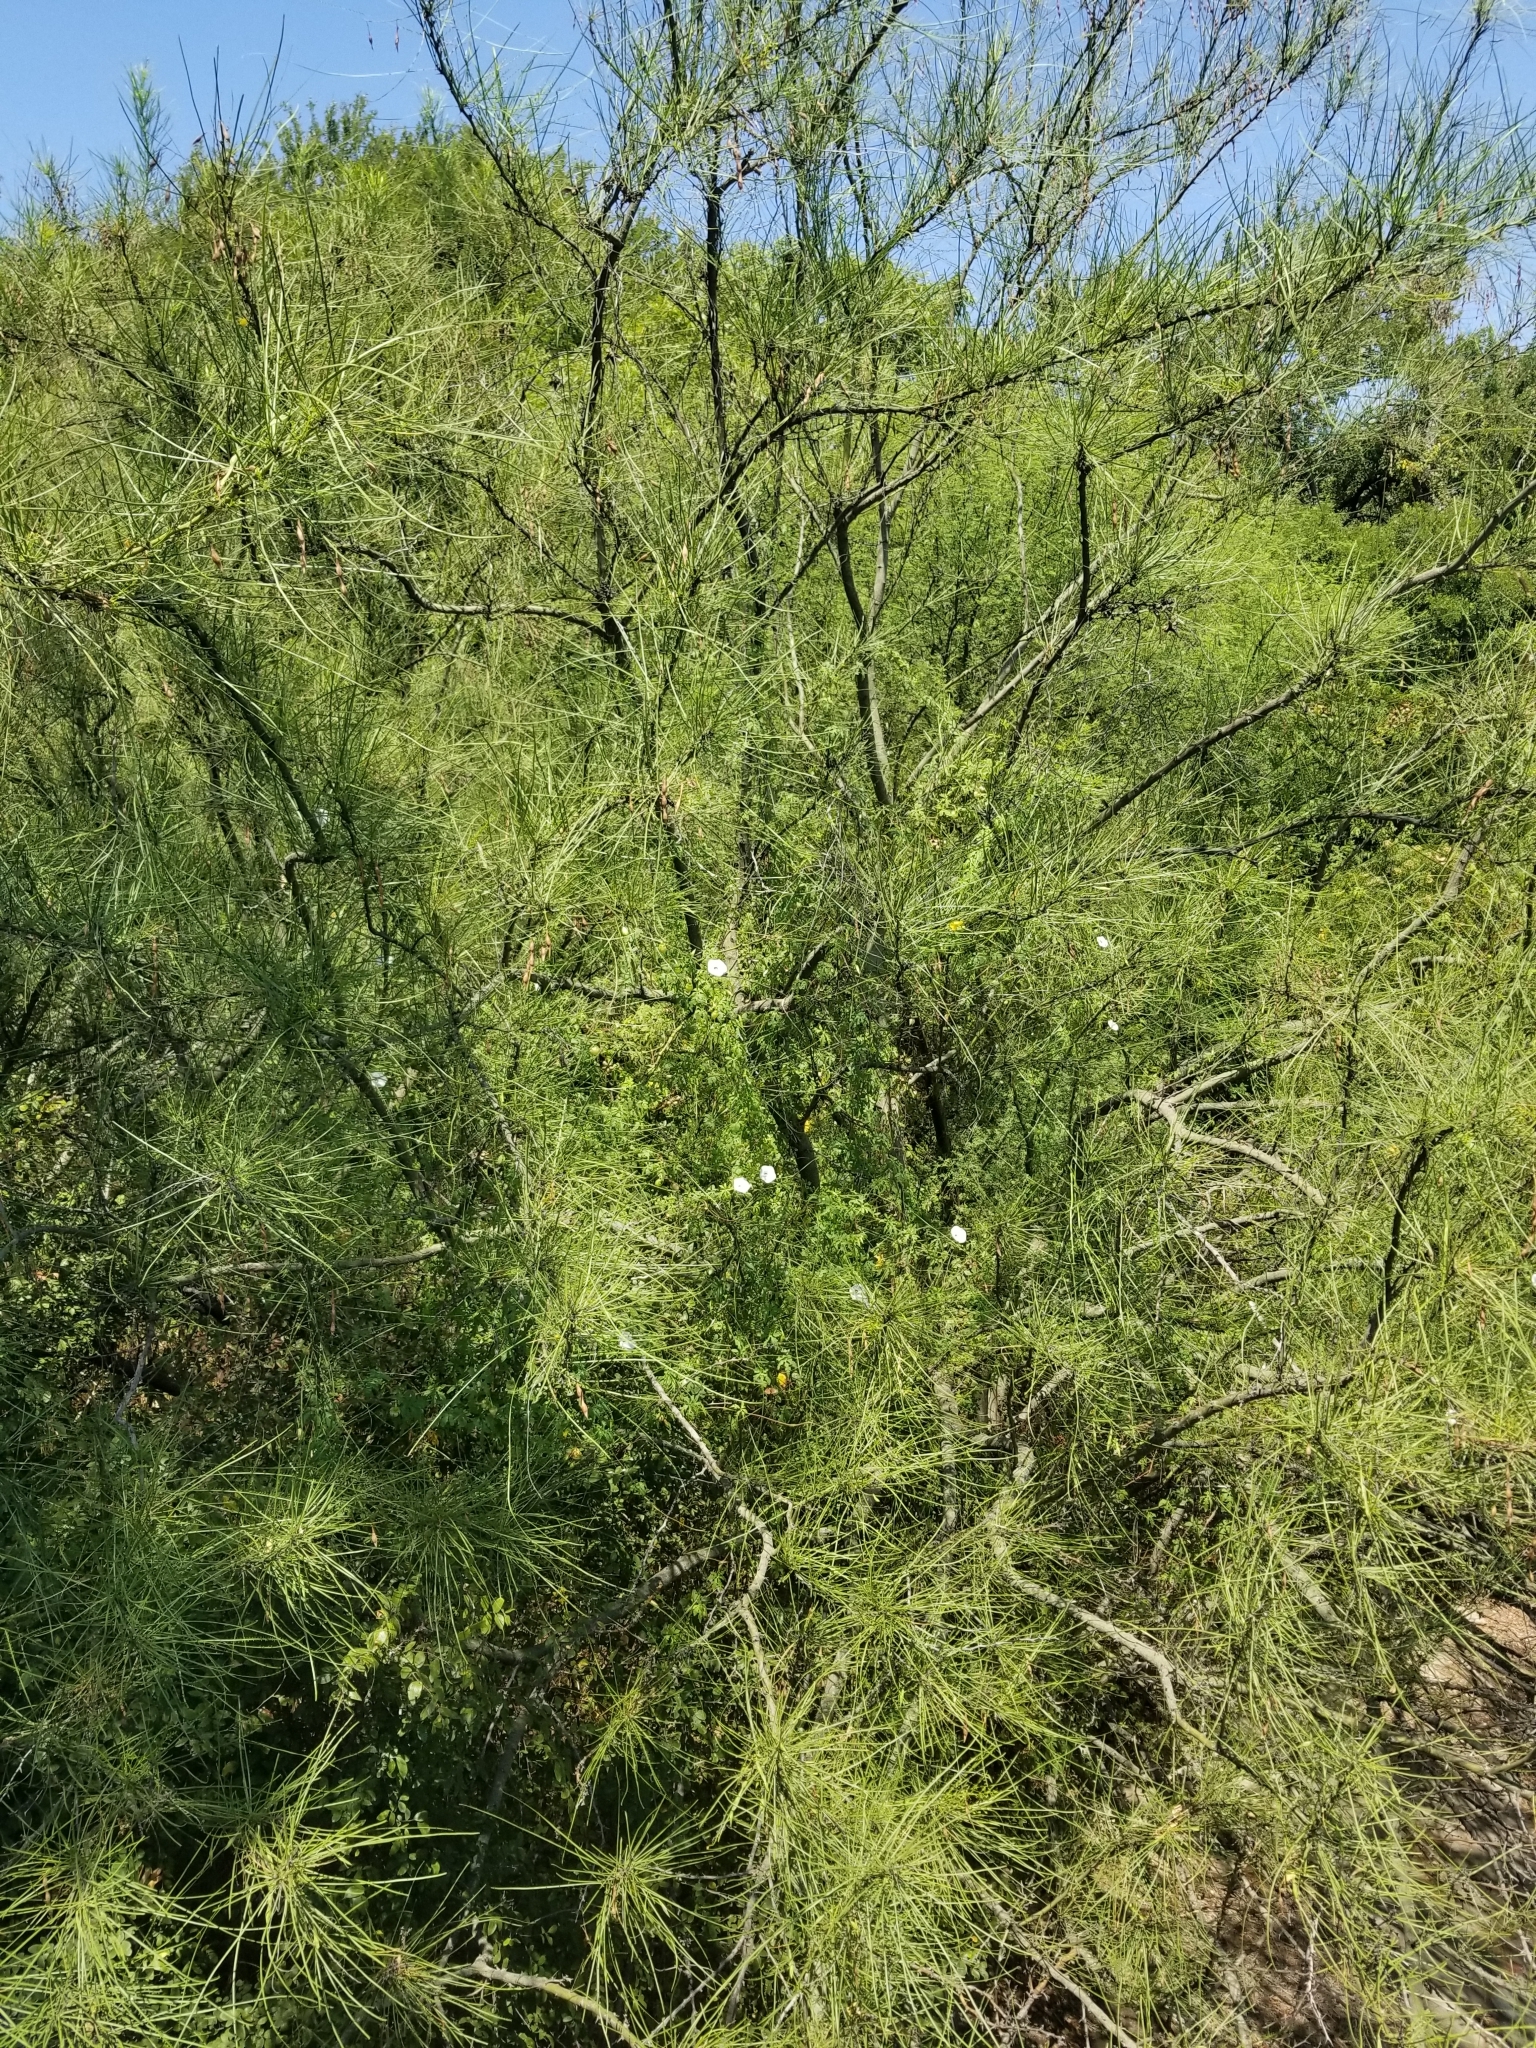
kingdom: Plantae
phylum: Tracheophyta
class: Magnoliopsida
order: Solanales
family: Convolvulaceae
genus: Distimake
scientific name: Distimake dissectus
